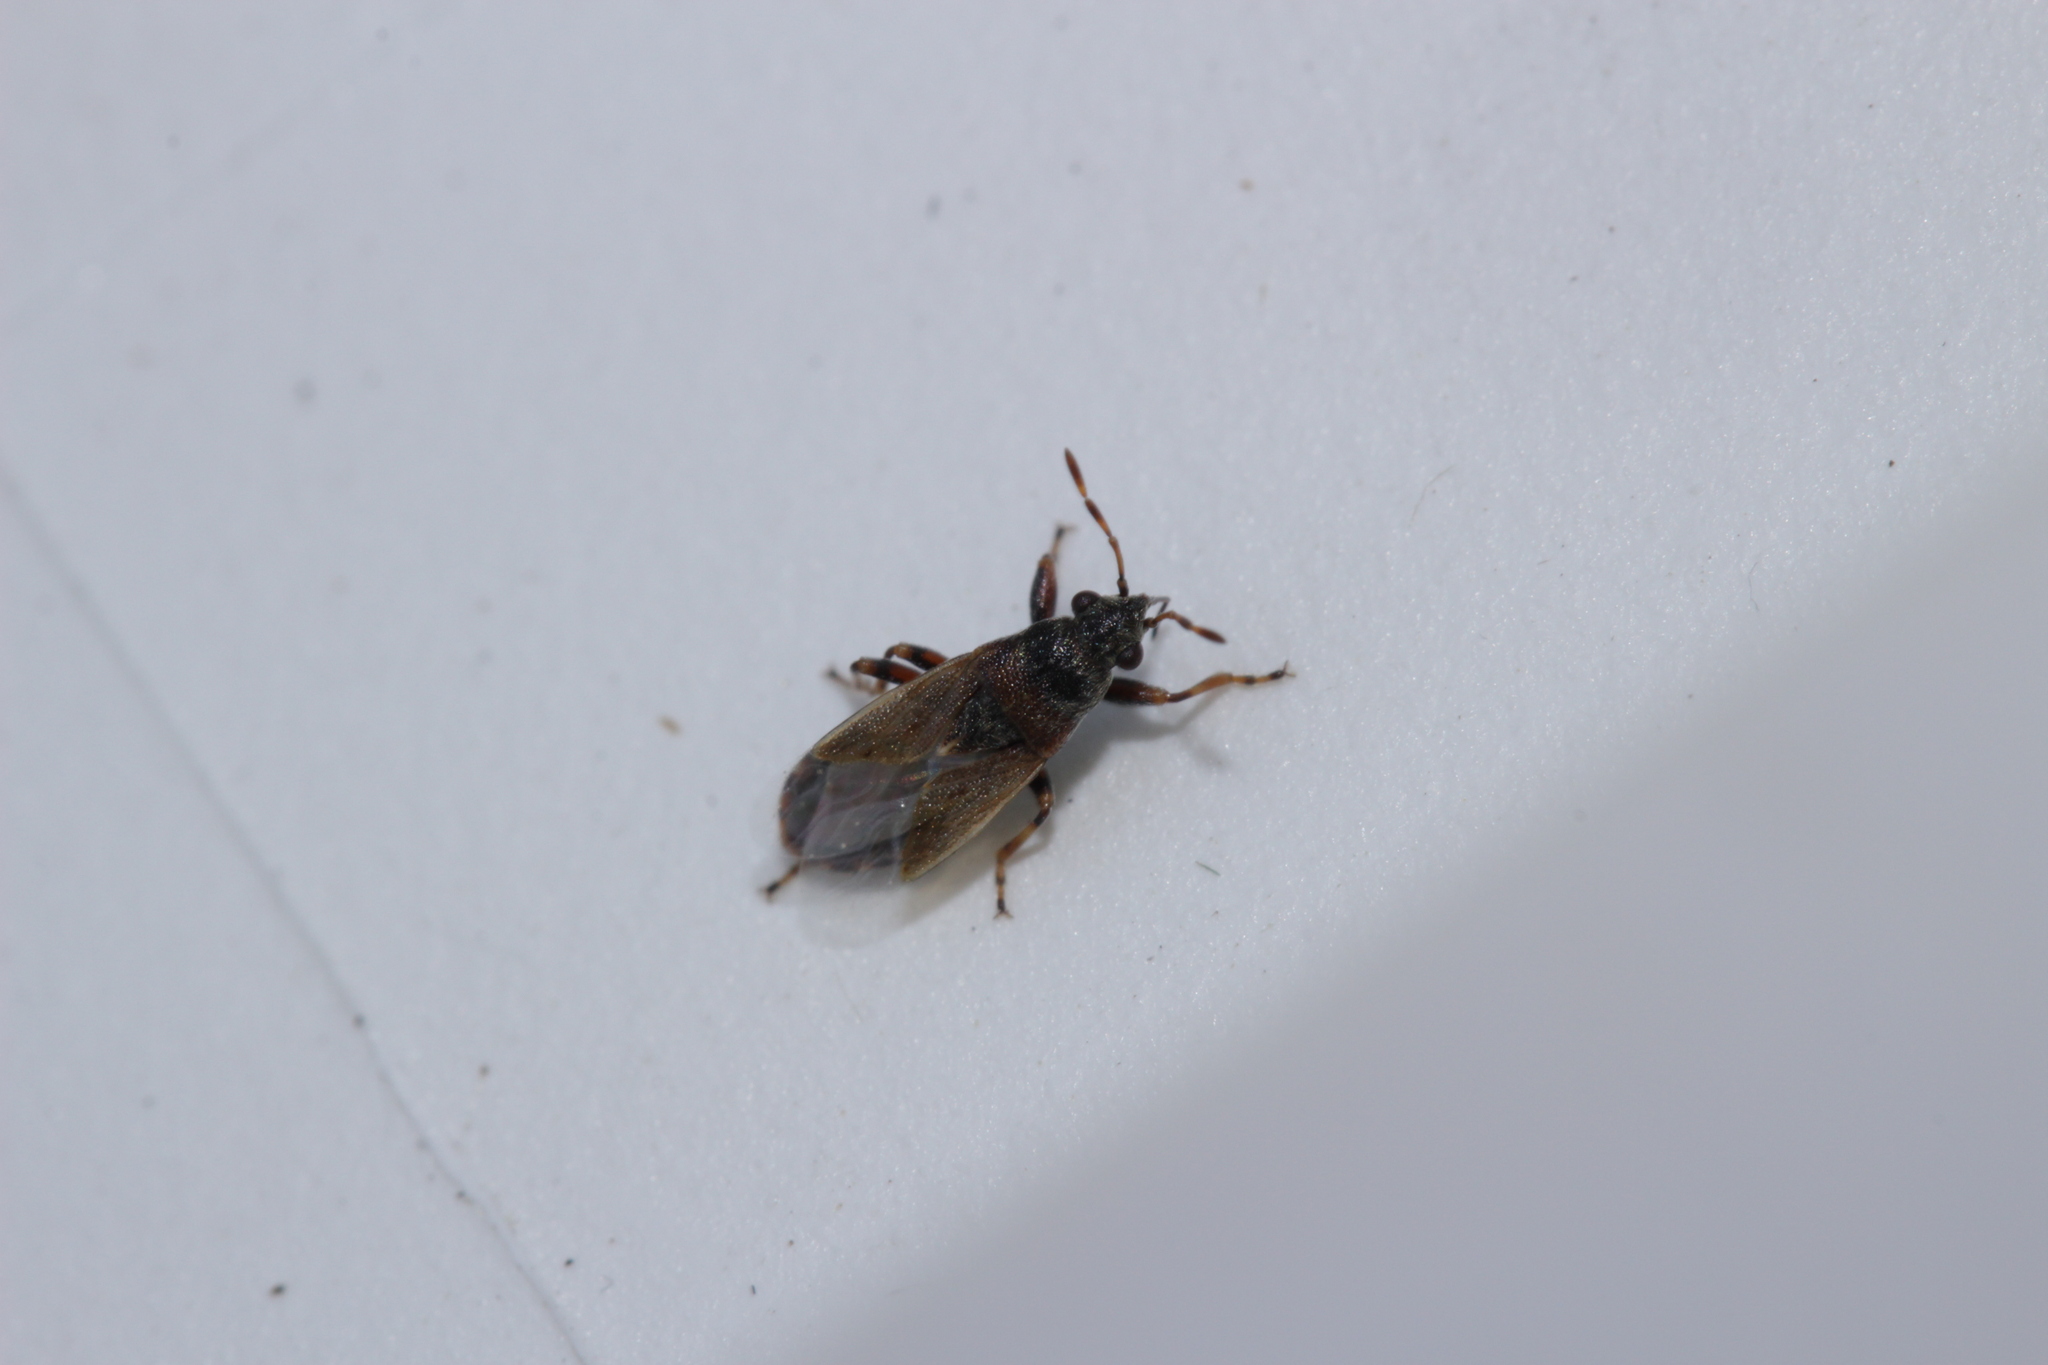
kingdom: Animalia
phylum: Arthropoda
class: Insecta
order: Hemiptera
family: Heterogastridae
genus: Heterogaster
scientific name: Heterogaster artemisiae
